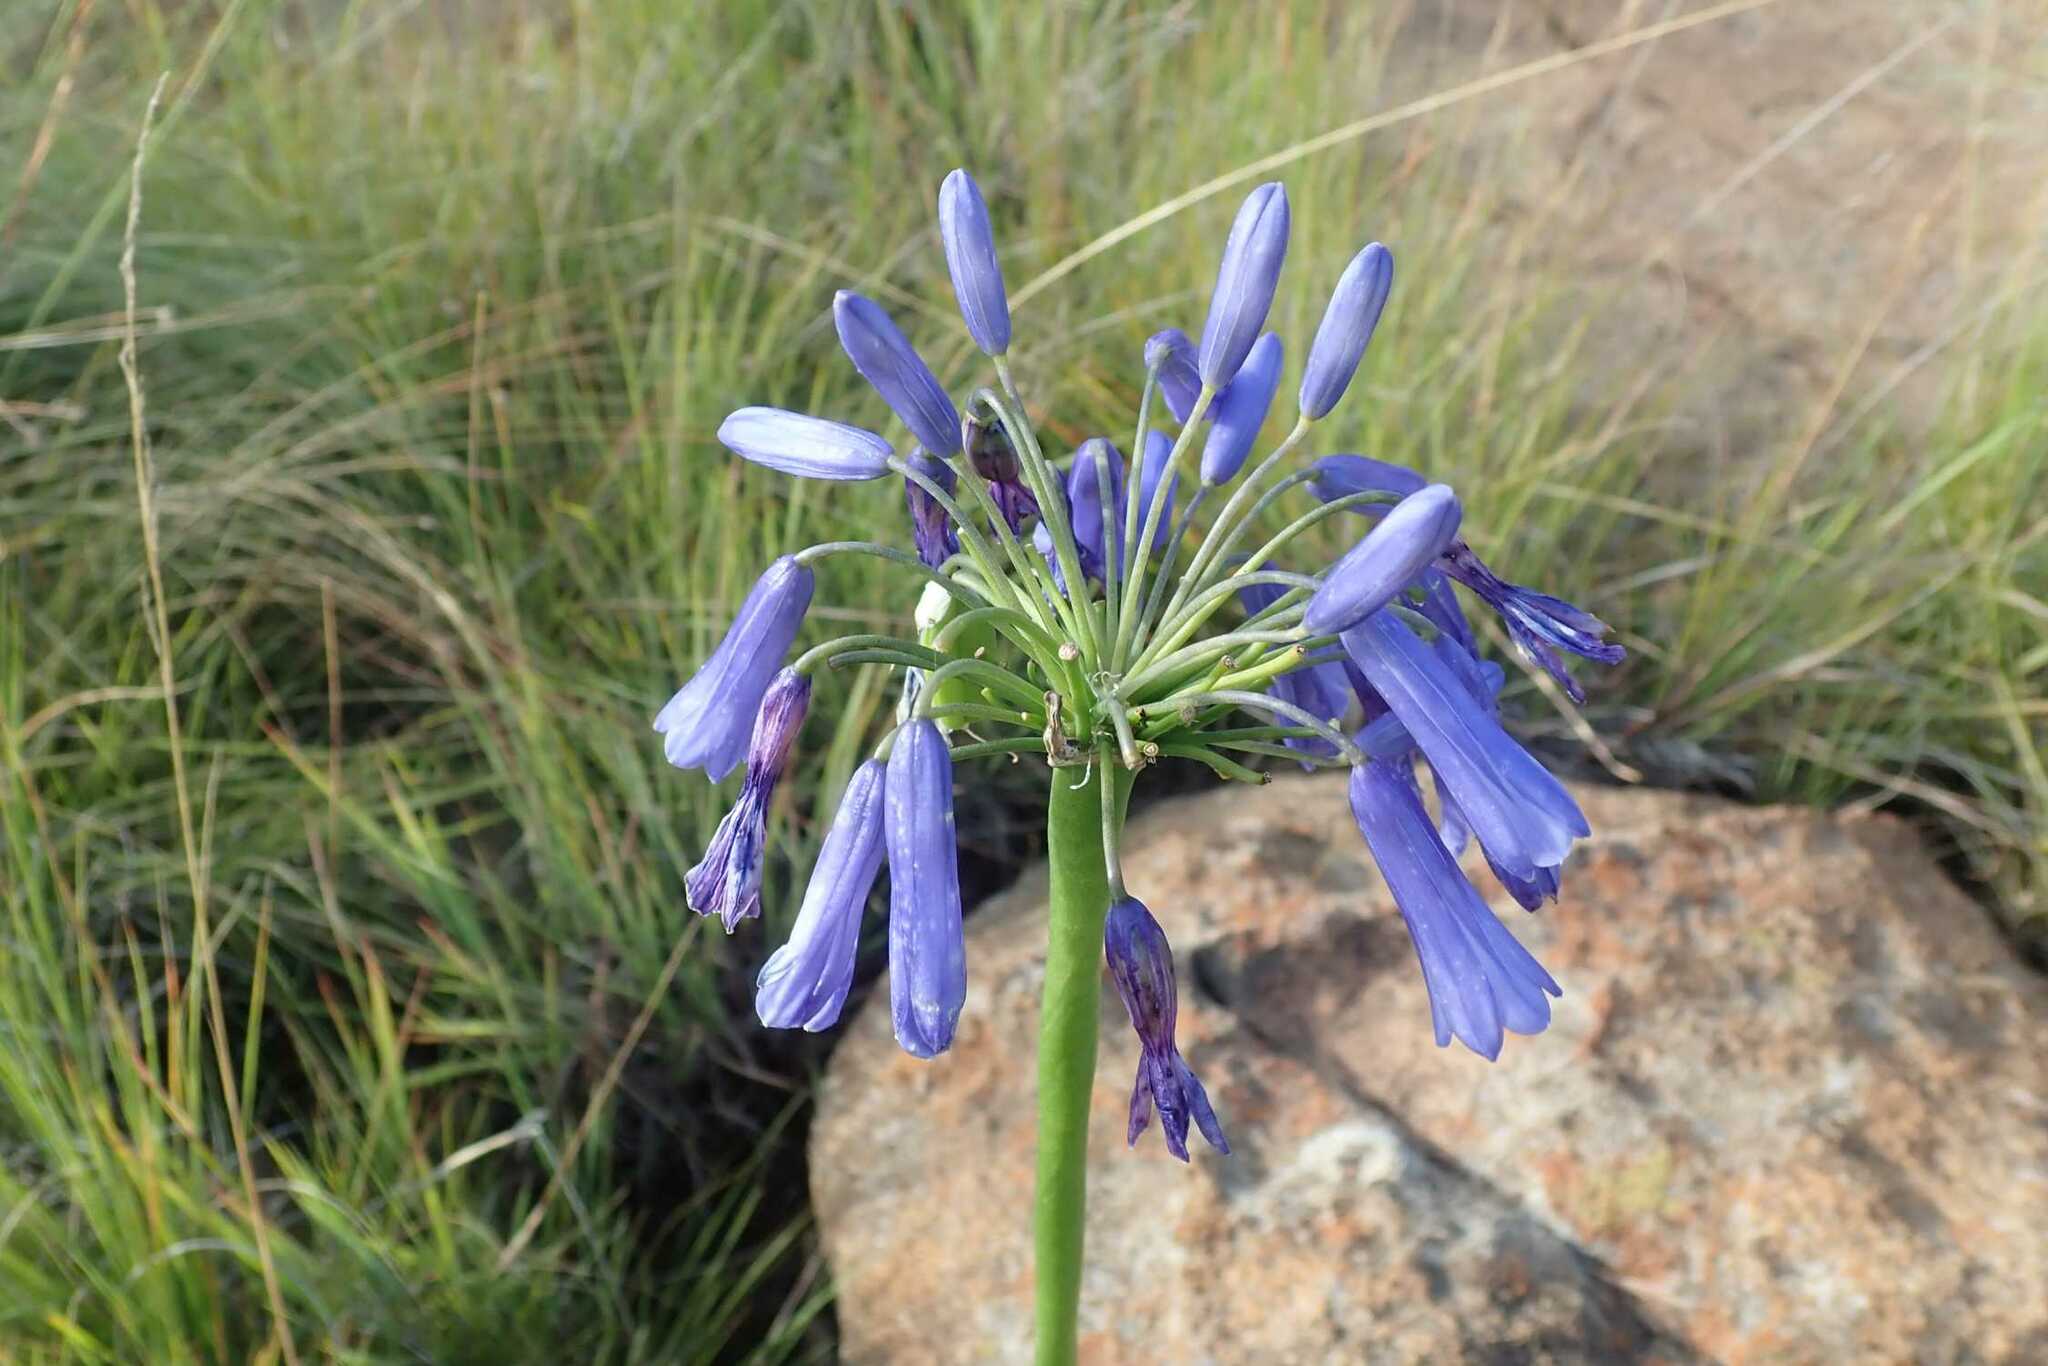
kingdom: Plantae
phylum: Tracheophyta
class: Liliopsida
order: Asparagales
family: Amaryllidaceae
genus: Agapanthus
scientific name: Agapanthus inapertus
